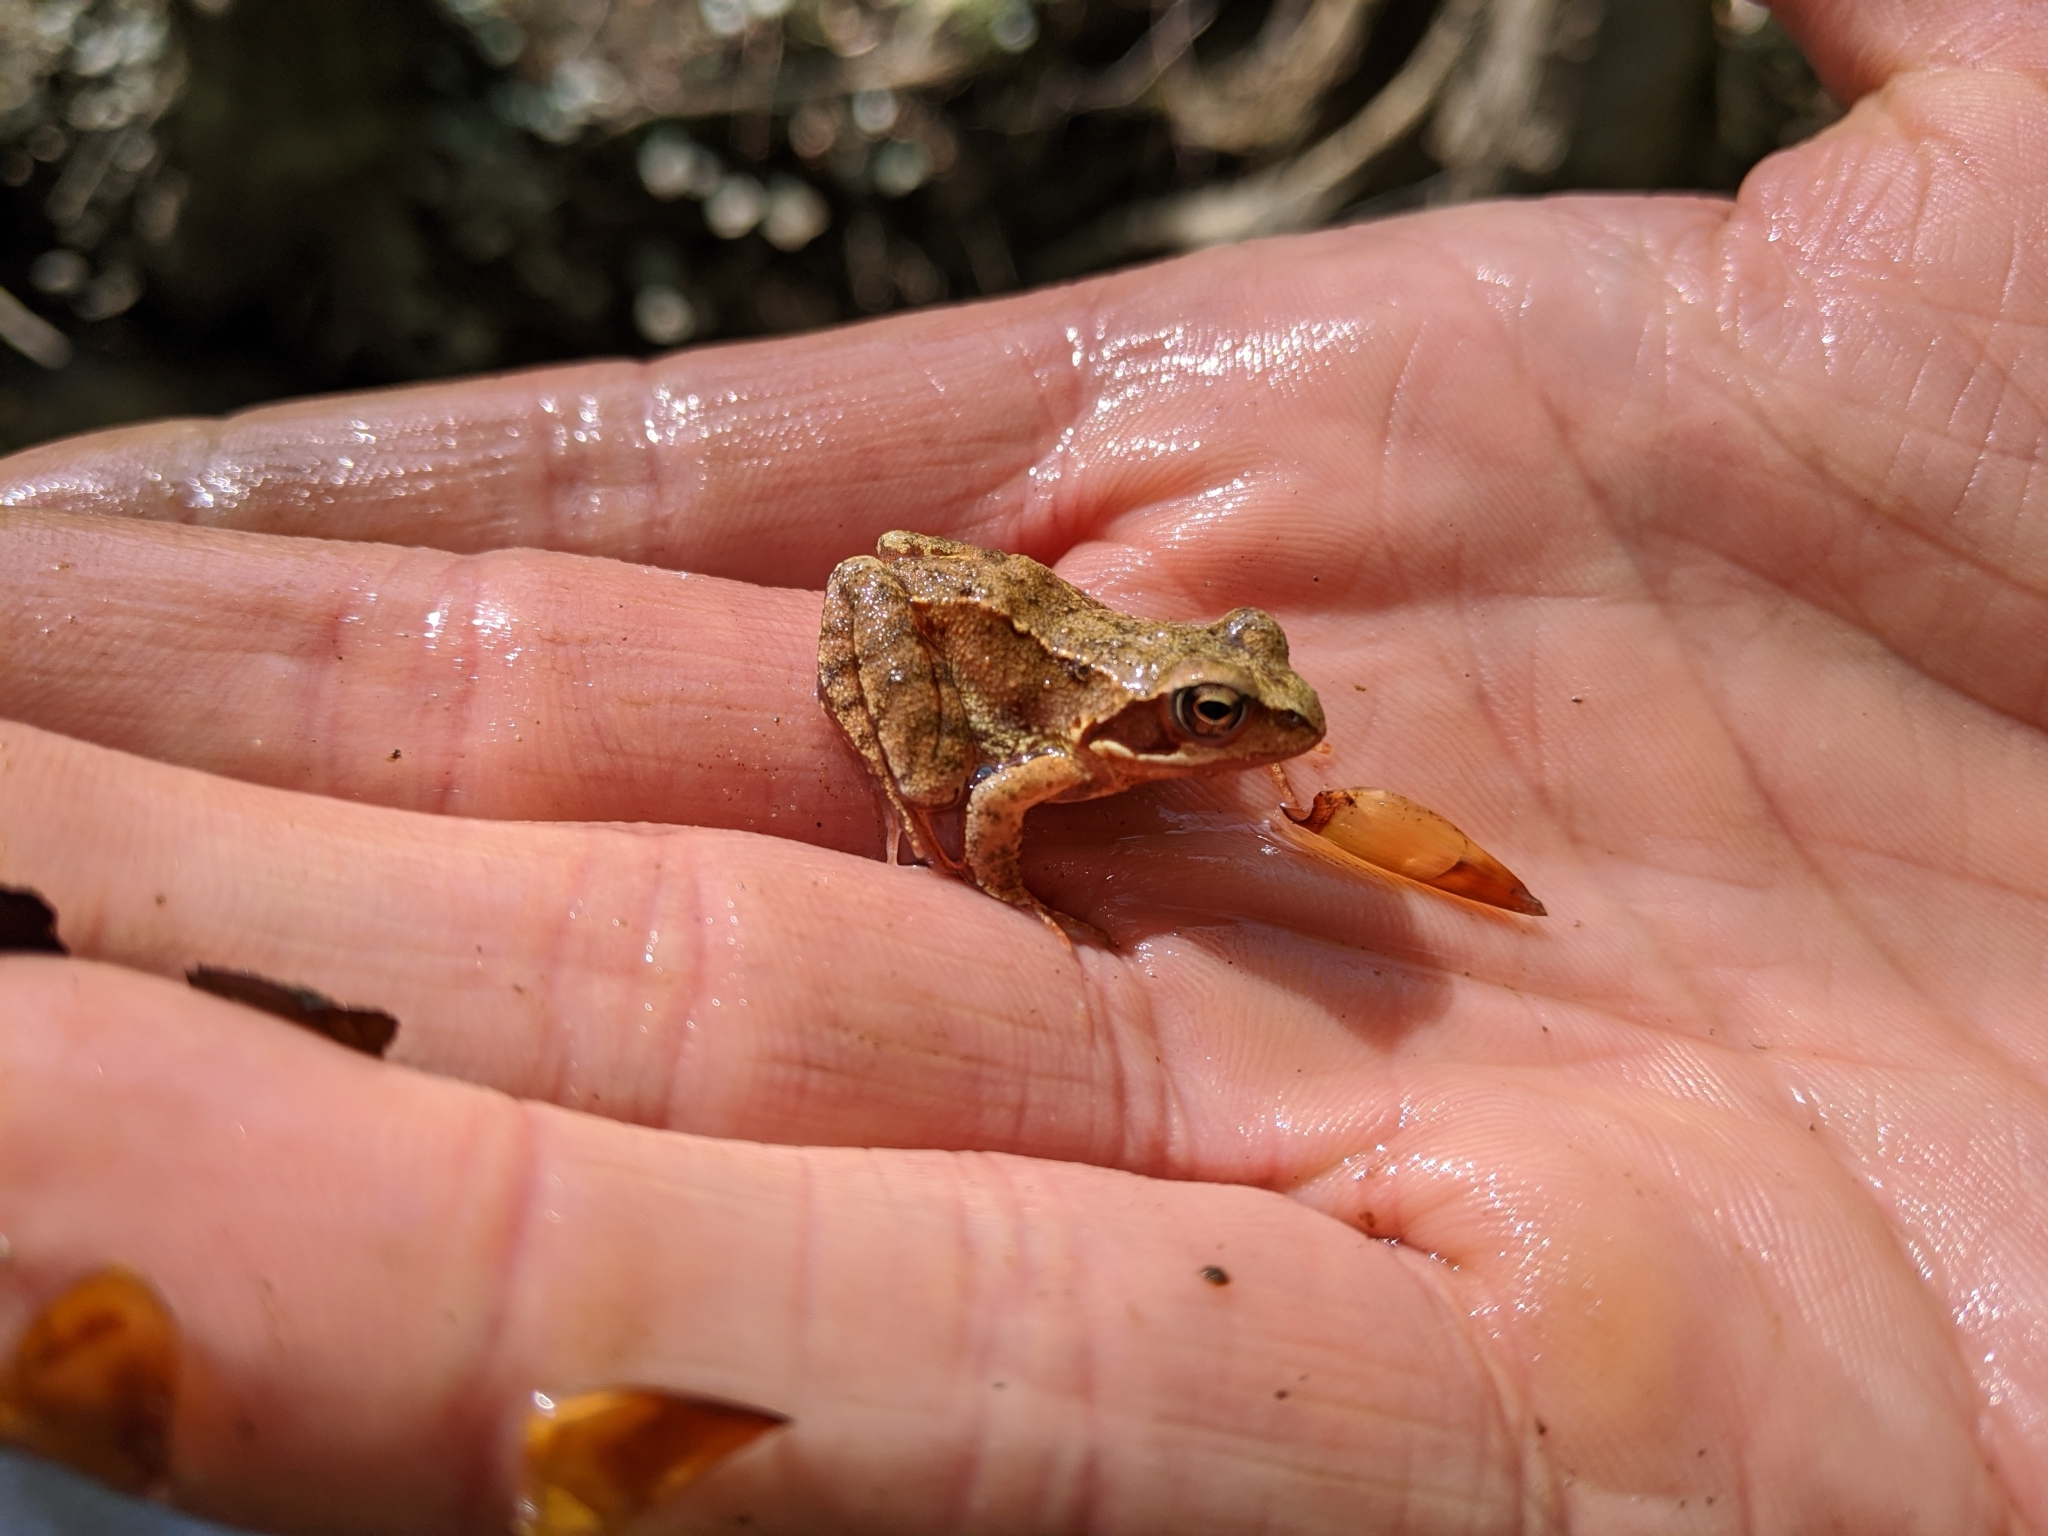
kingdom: Animalia
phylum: Chordata
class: Amphibia
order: Anura
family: Ranidae
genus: Rana
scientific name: Rana temporaria
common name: Common frog
